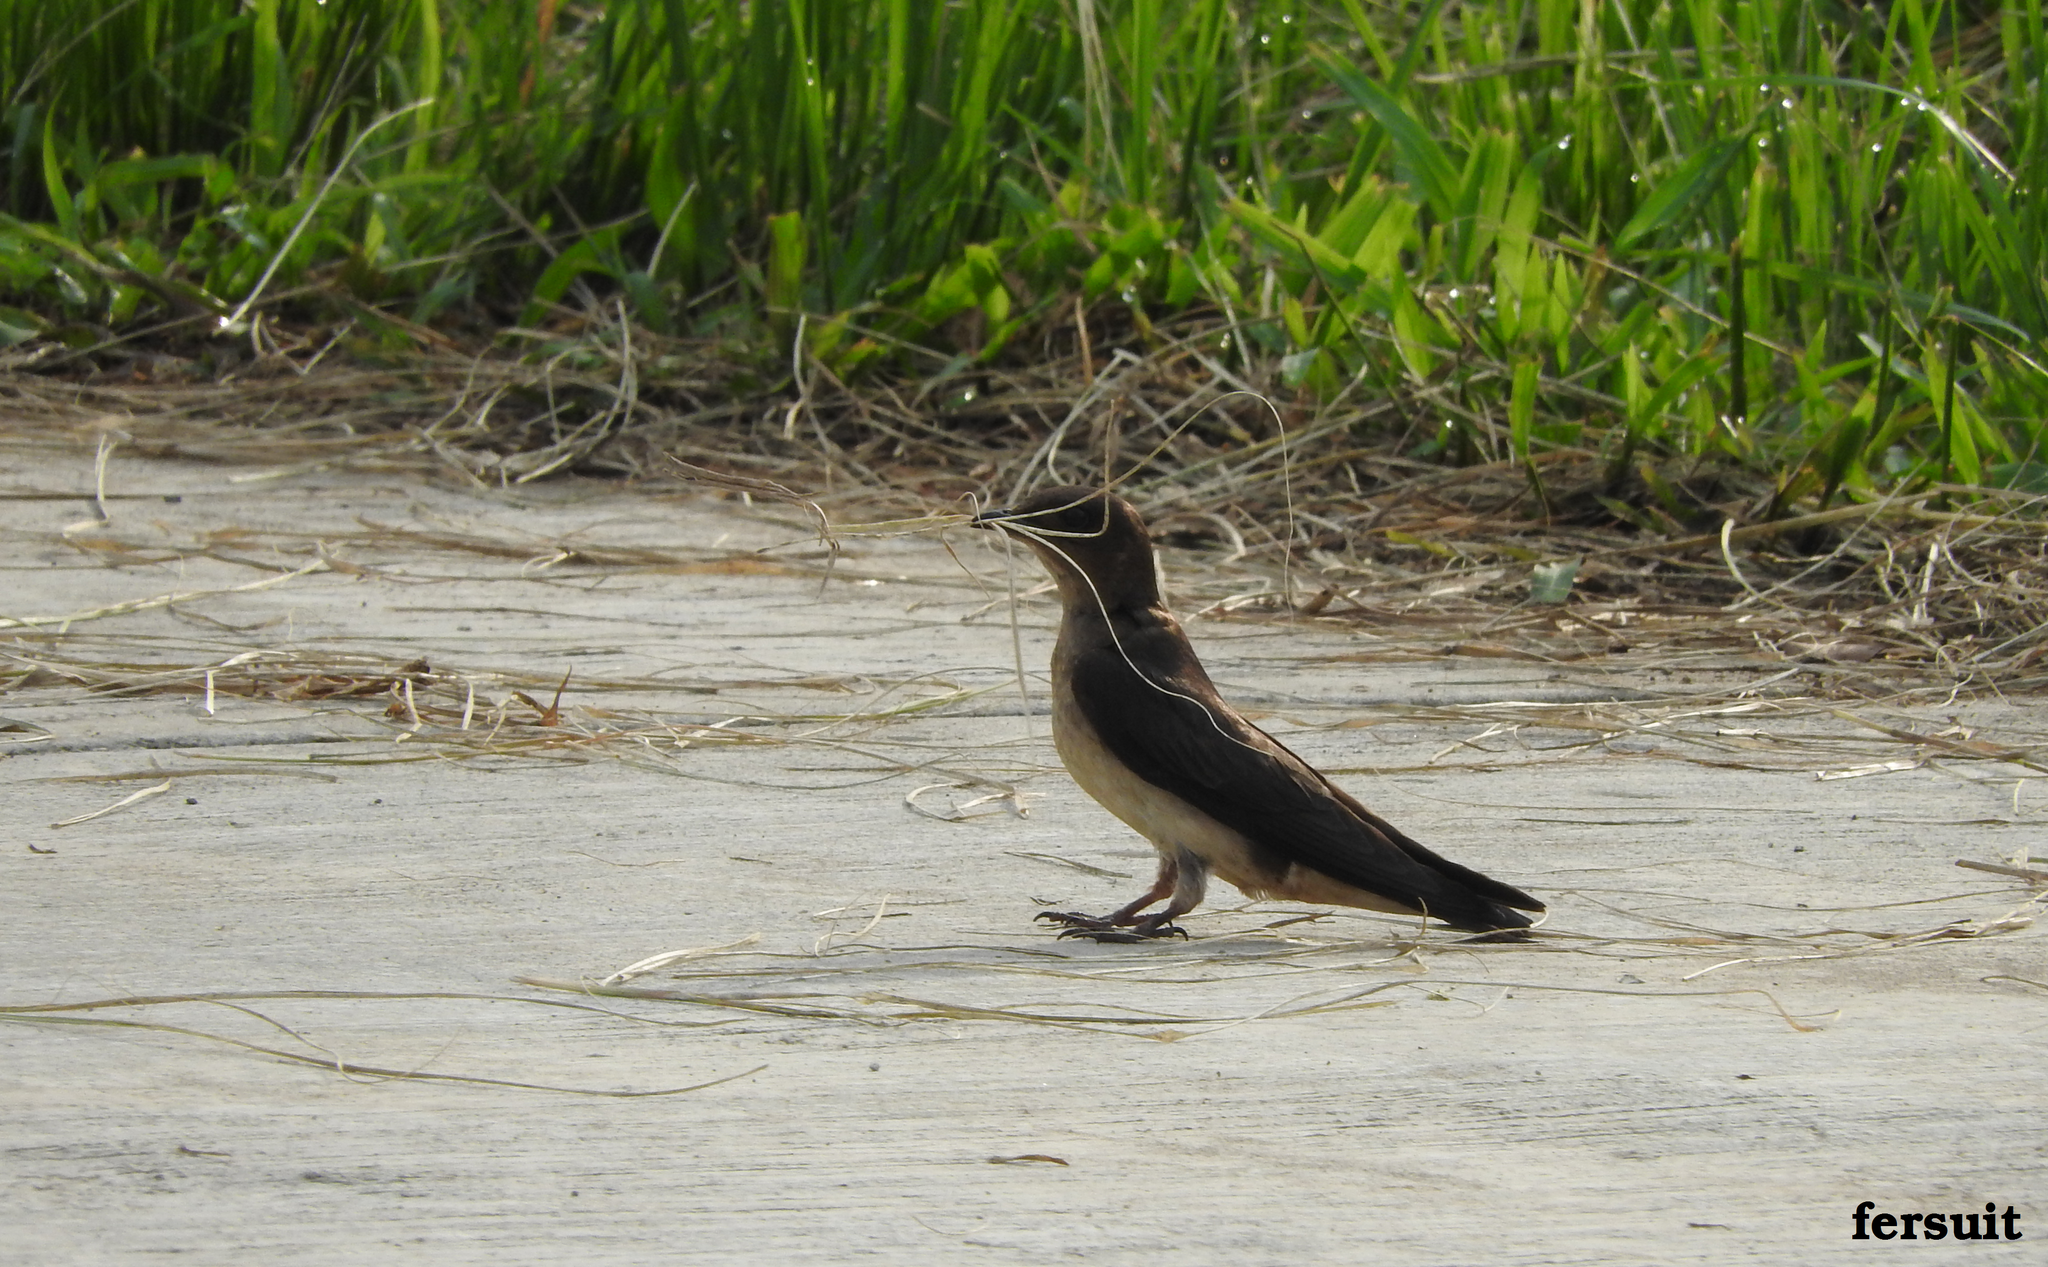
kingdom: Animalia
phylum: Chordata
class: Aves
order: Passeriformes
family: Hirundinidae
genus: Progne
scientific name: Progne chalybea
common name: Grey-breasted martin
